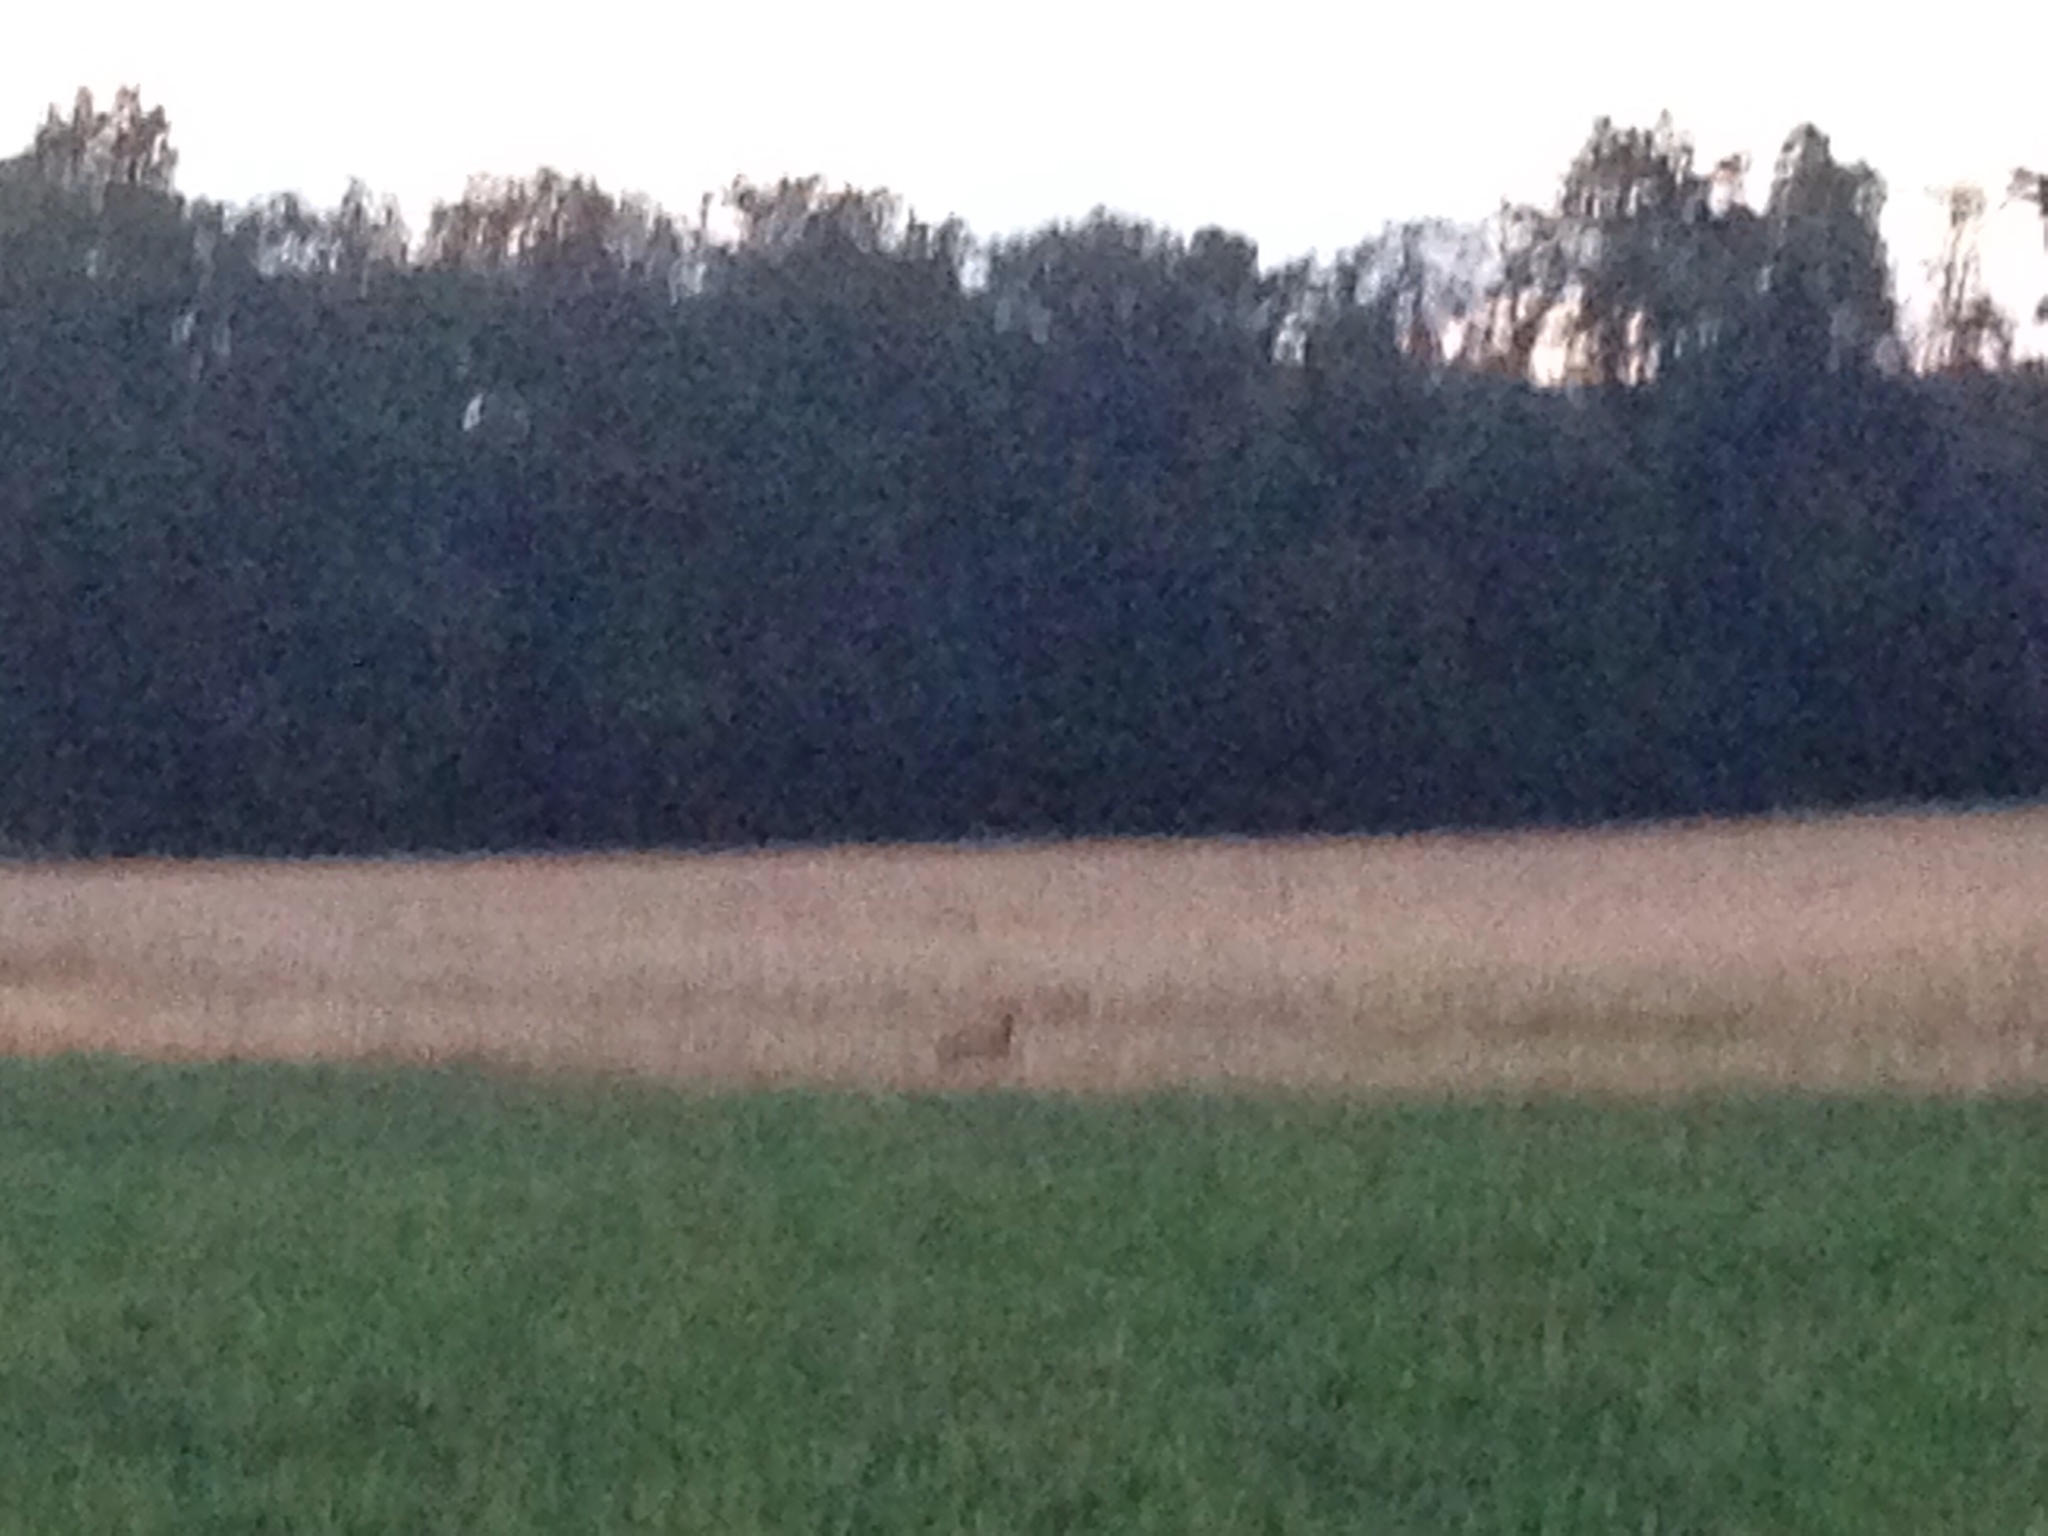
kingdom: Animalia
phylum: Chordata
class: Mammalia
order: Artiodactyla
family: Cervidae
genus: Capreolus
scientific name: Capreolus capreolus
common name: Western roe deer
